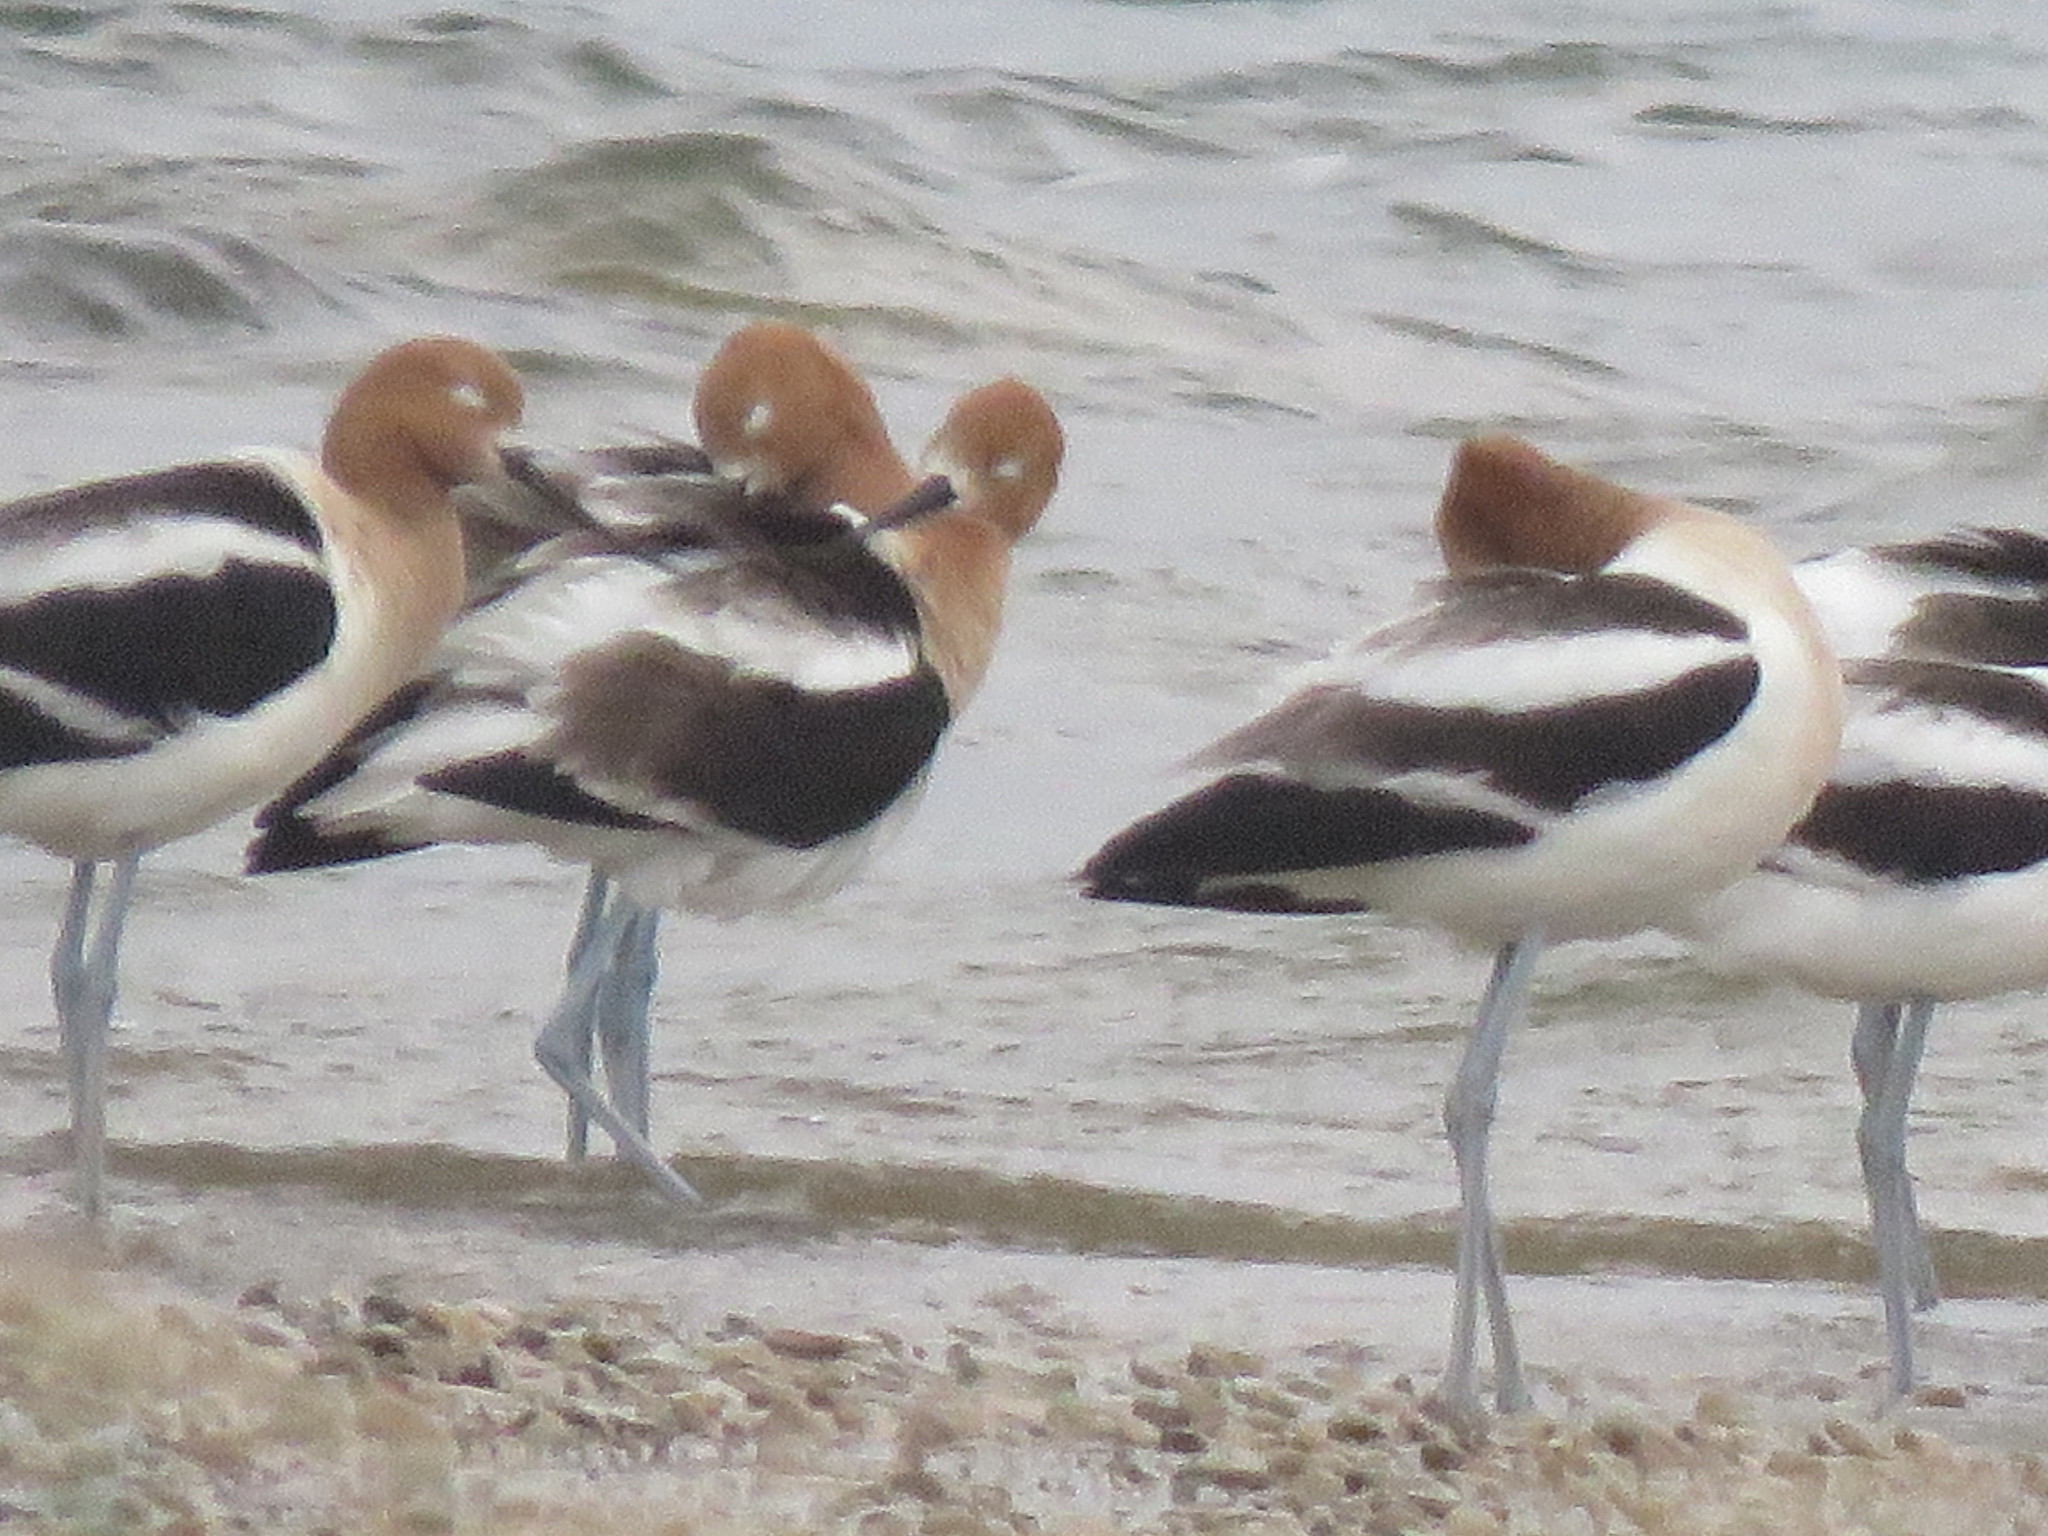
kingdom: Animalia
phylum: Chordata
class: Aves
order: Charadriiformes
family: Recurvirostridae
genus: Recurvirostra
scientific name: Recurvirostra americana
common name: American avocet
